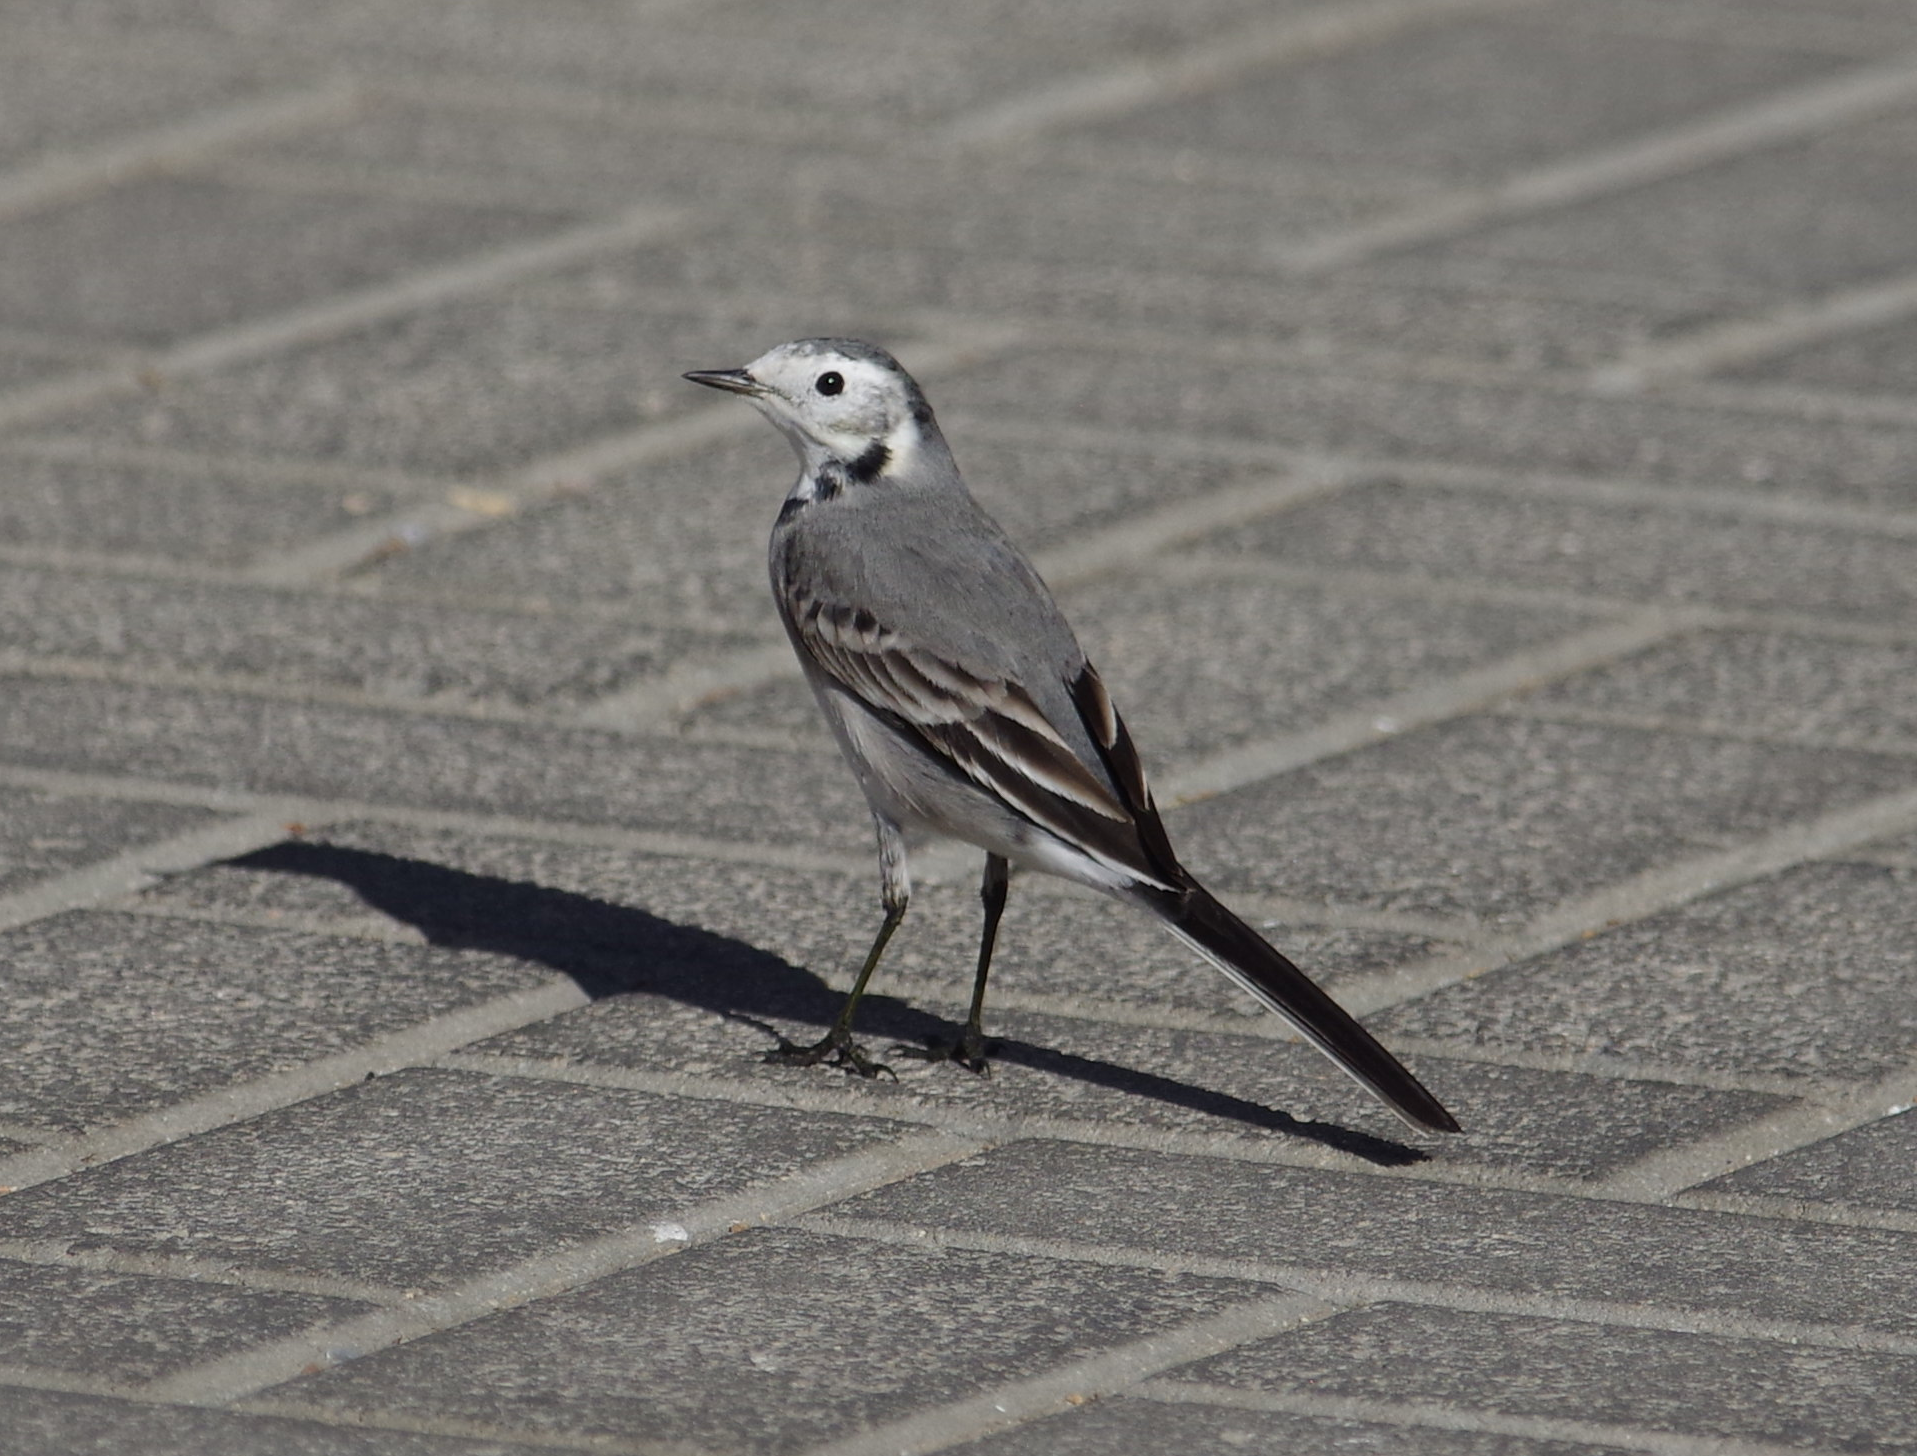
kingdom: Animalia
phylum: Chordata
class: Aves
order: Passeriformes
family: Motacillidae
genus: Motacilla
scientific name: Motacilla alba
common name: White wagtail
